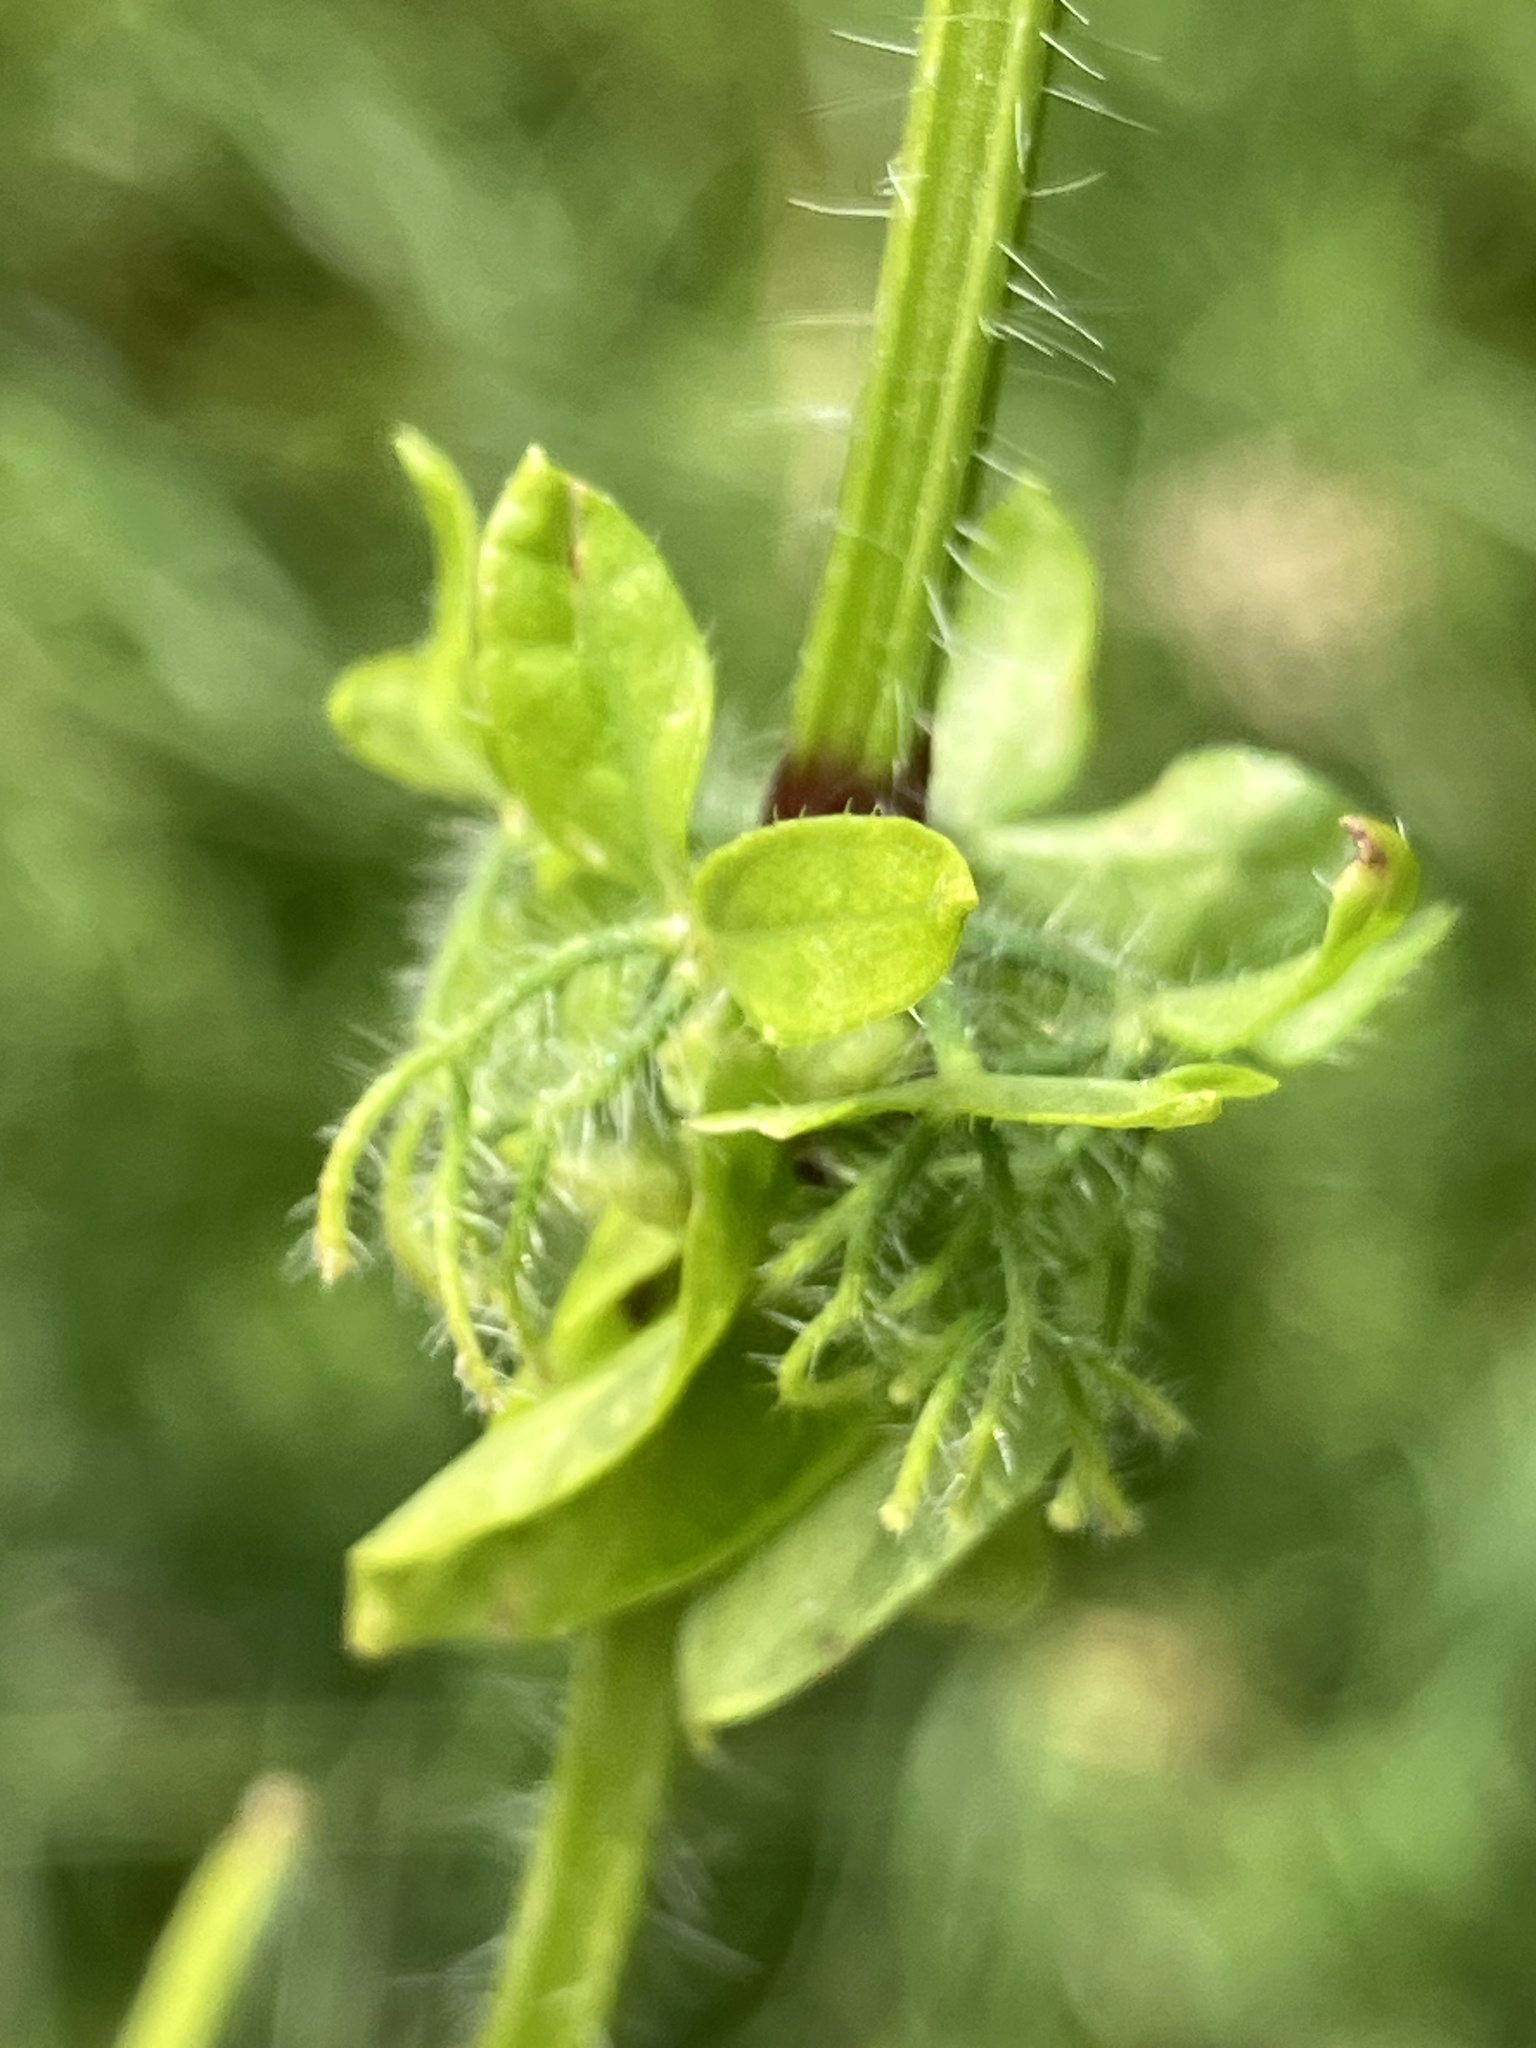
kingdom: Plantae
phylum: Tracheophyta
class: Magnoliopsida
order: Gentianales
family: Rubiaceae
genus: Cruciata
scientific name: Cruciata laevipes
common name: Crosswort
